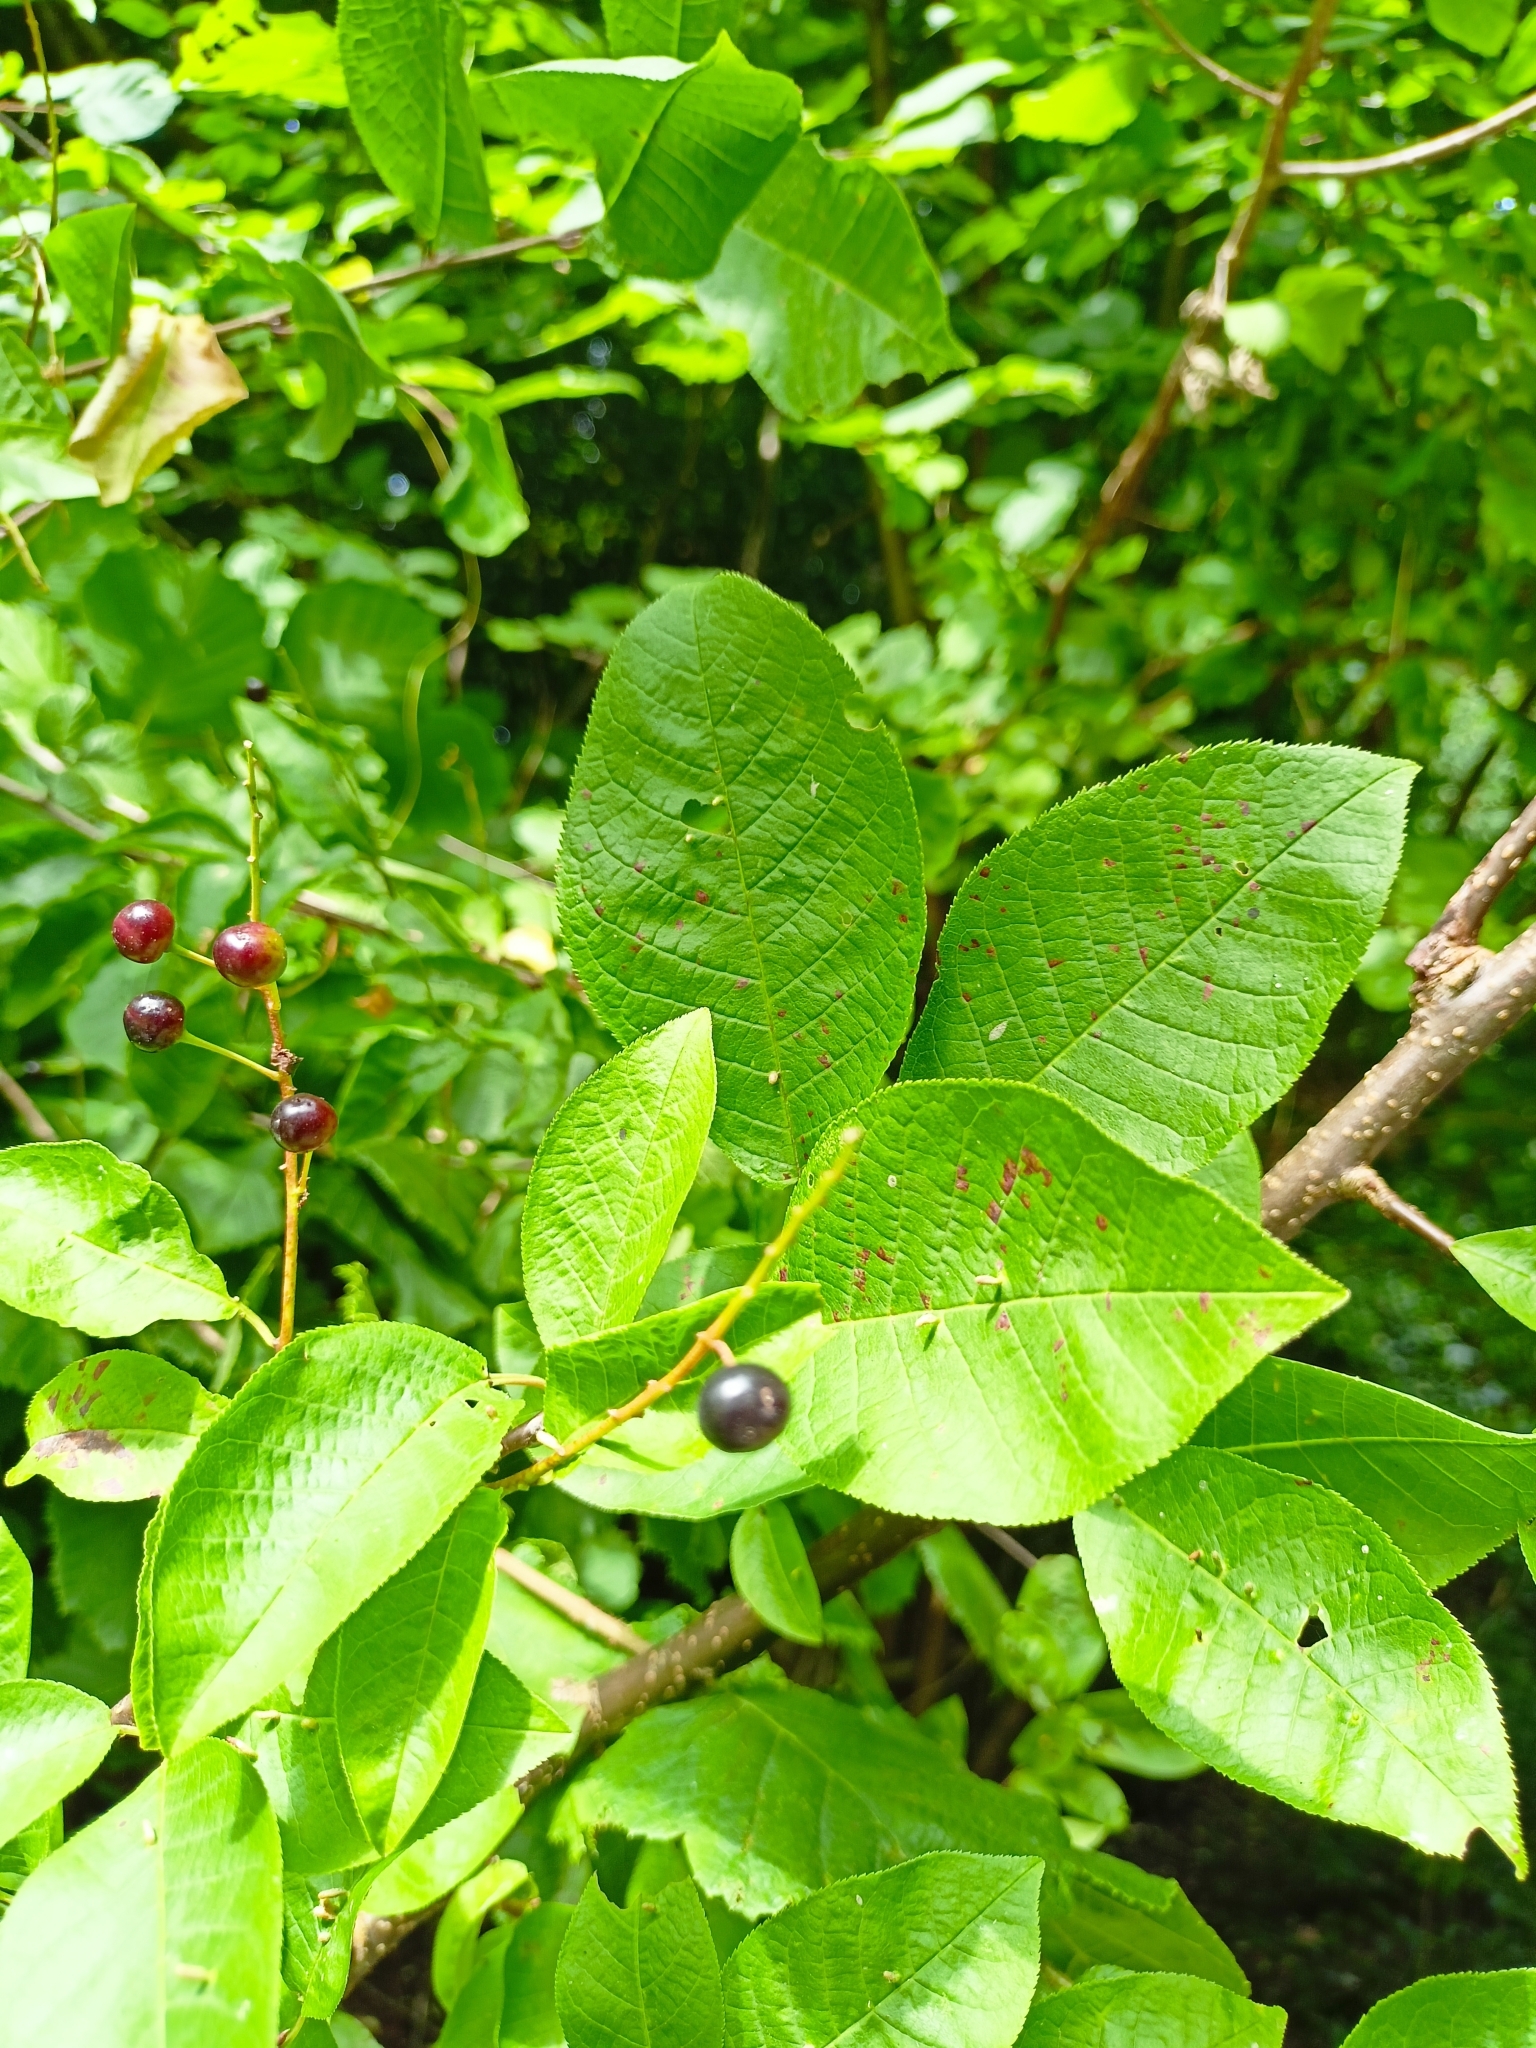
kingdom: Plantae
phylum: Tracheophyta
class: Magnoliopsida
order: Rosales
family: Rosaceae
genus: Prunus
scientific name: Prunus padus
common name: Bird cherry
